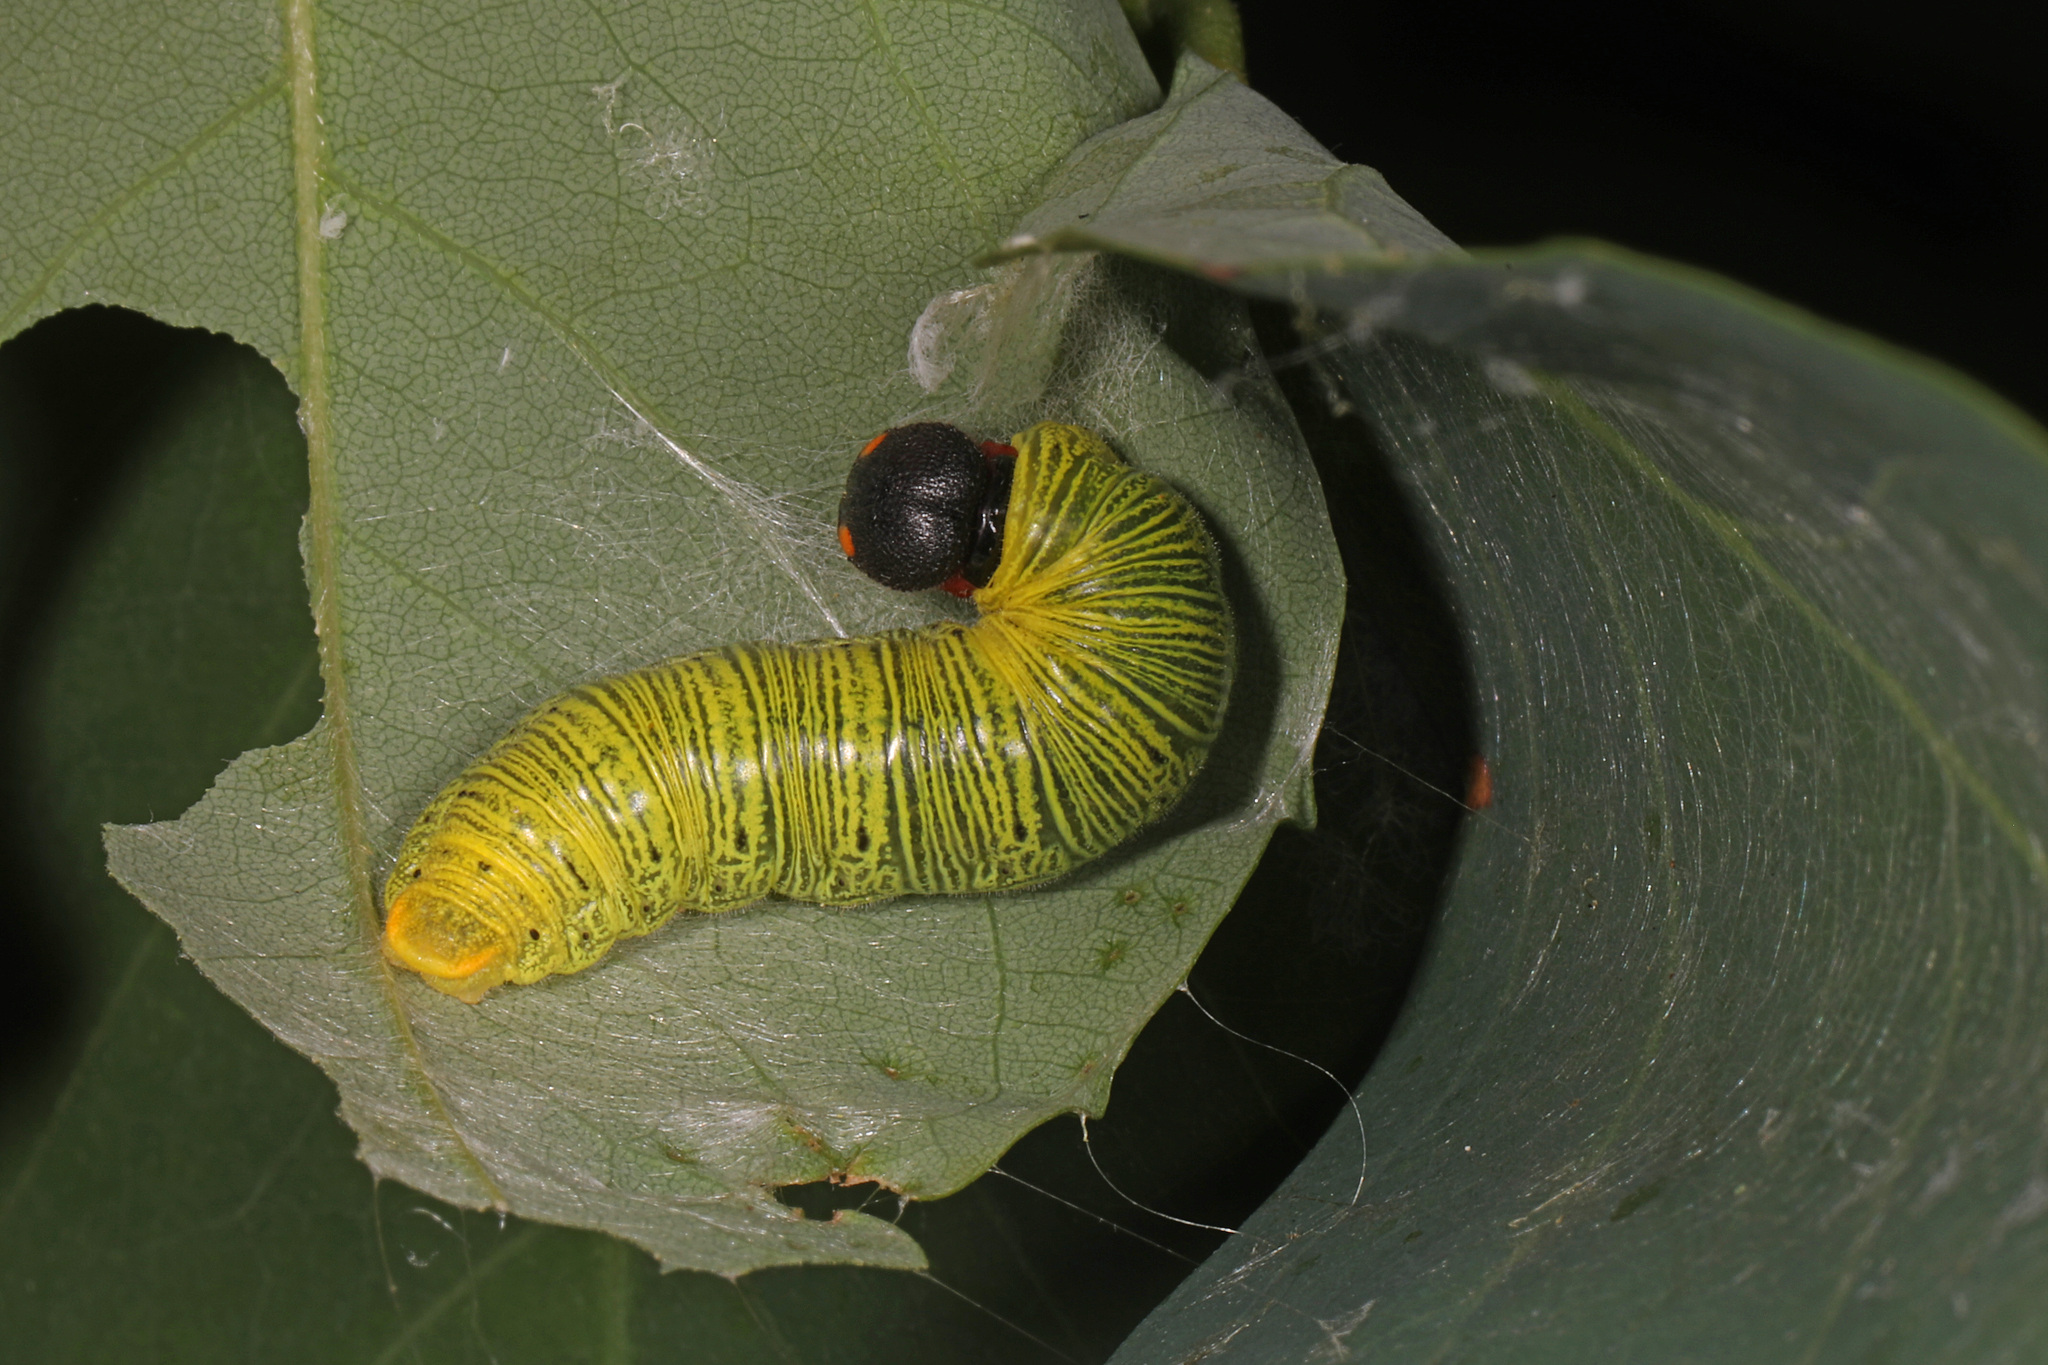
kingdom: Animalia
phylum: Arthropoda
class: Insecta
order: Lepidoptera
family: Hesperiidae
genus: Epargyreus
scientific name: Epargyreus clarus
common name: Silver-spotted skipper
